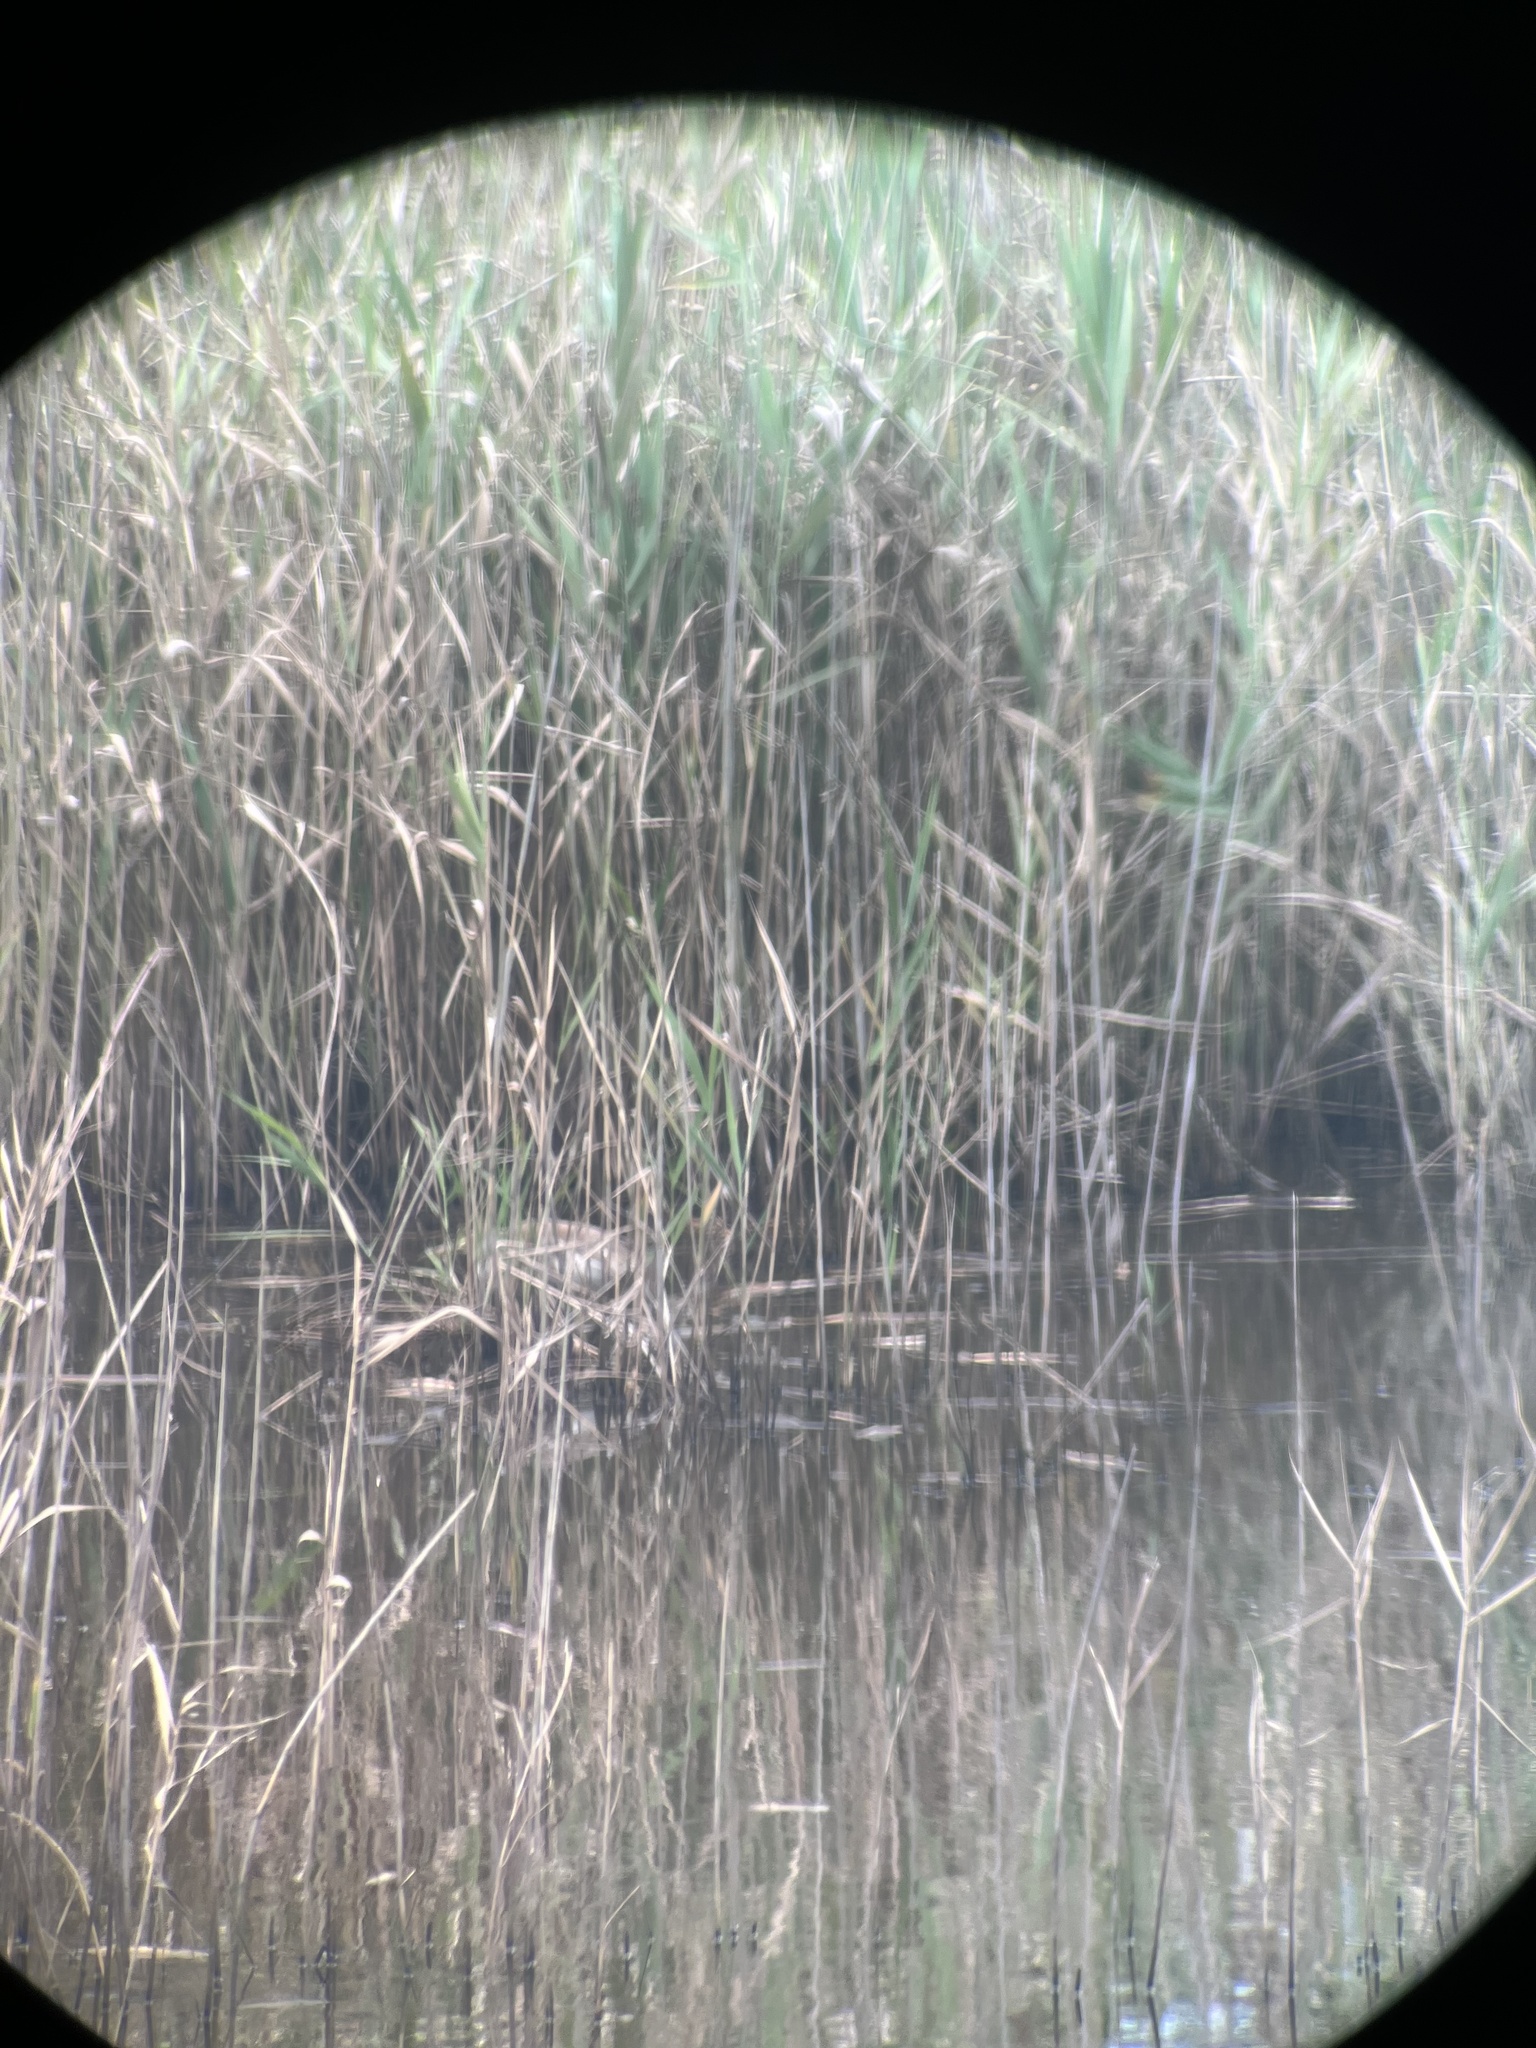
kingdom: Animalia
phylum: Chordata
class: Aves
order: Pelecaniformes
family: Ardeidae
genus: Ardeola
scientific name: Ardeola bacchus
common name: Chinese pond heron
